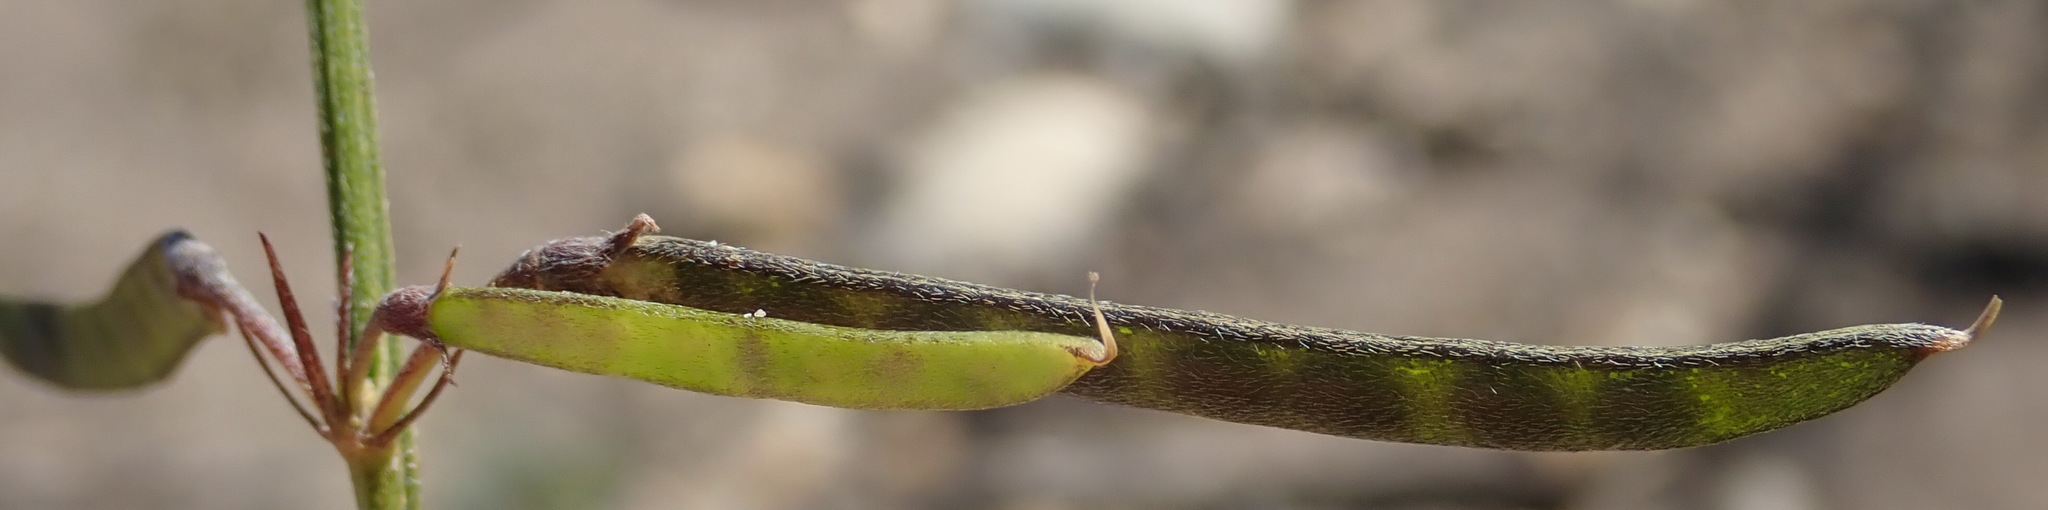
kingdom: Plantae
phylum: Tracheophyta
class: Magnoliopsida
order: Fabales
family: Fabaceae
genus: Tephrosia
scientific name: Tephrosia capensis
